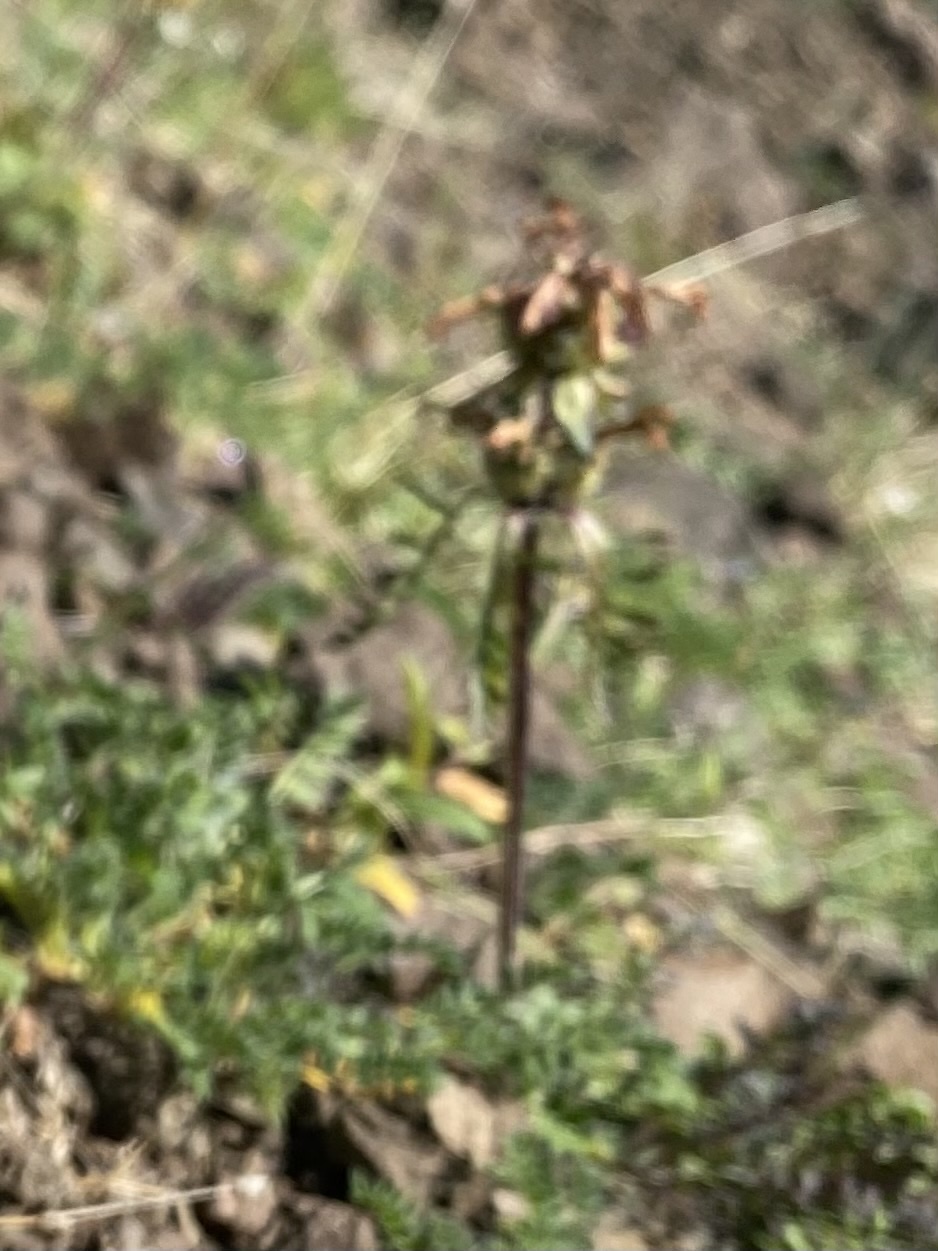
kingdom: Plantae
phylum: Tracheophyta
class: Magnoliopsida
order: Lamiales
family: Orobanchaceae
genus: Pedicularis
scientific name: Pedicularis amoena
